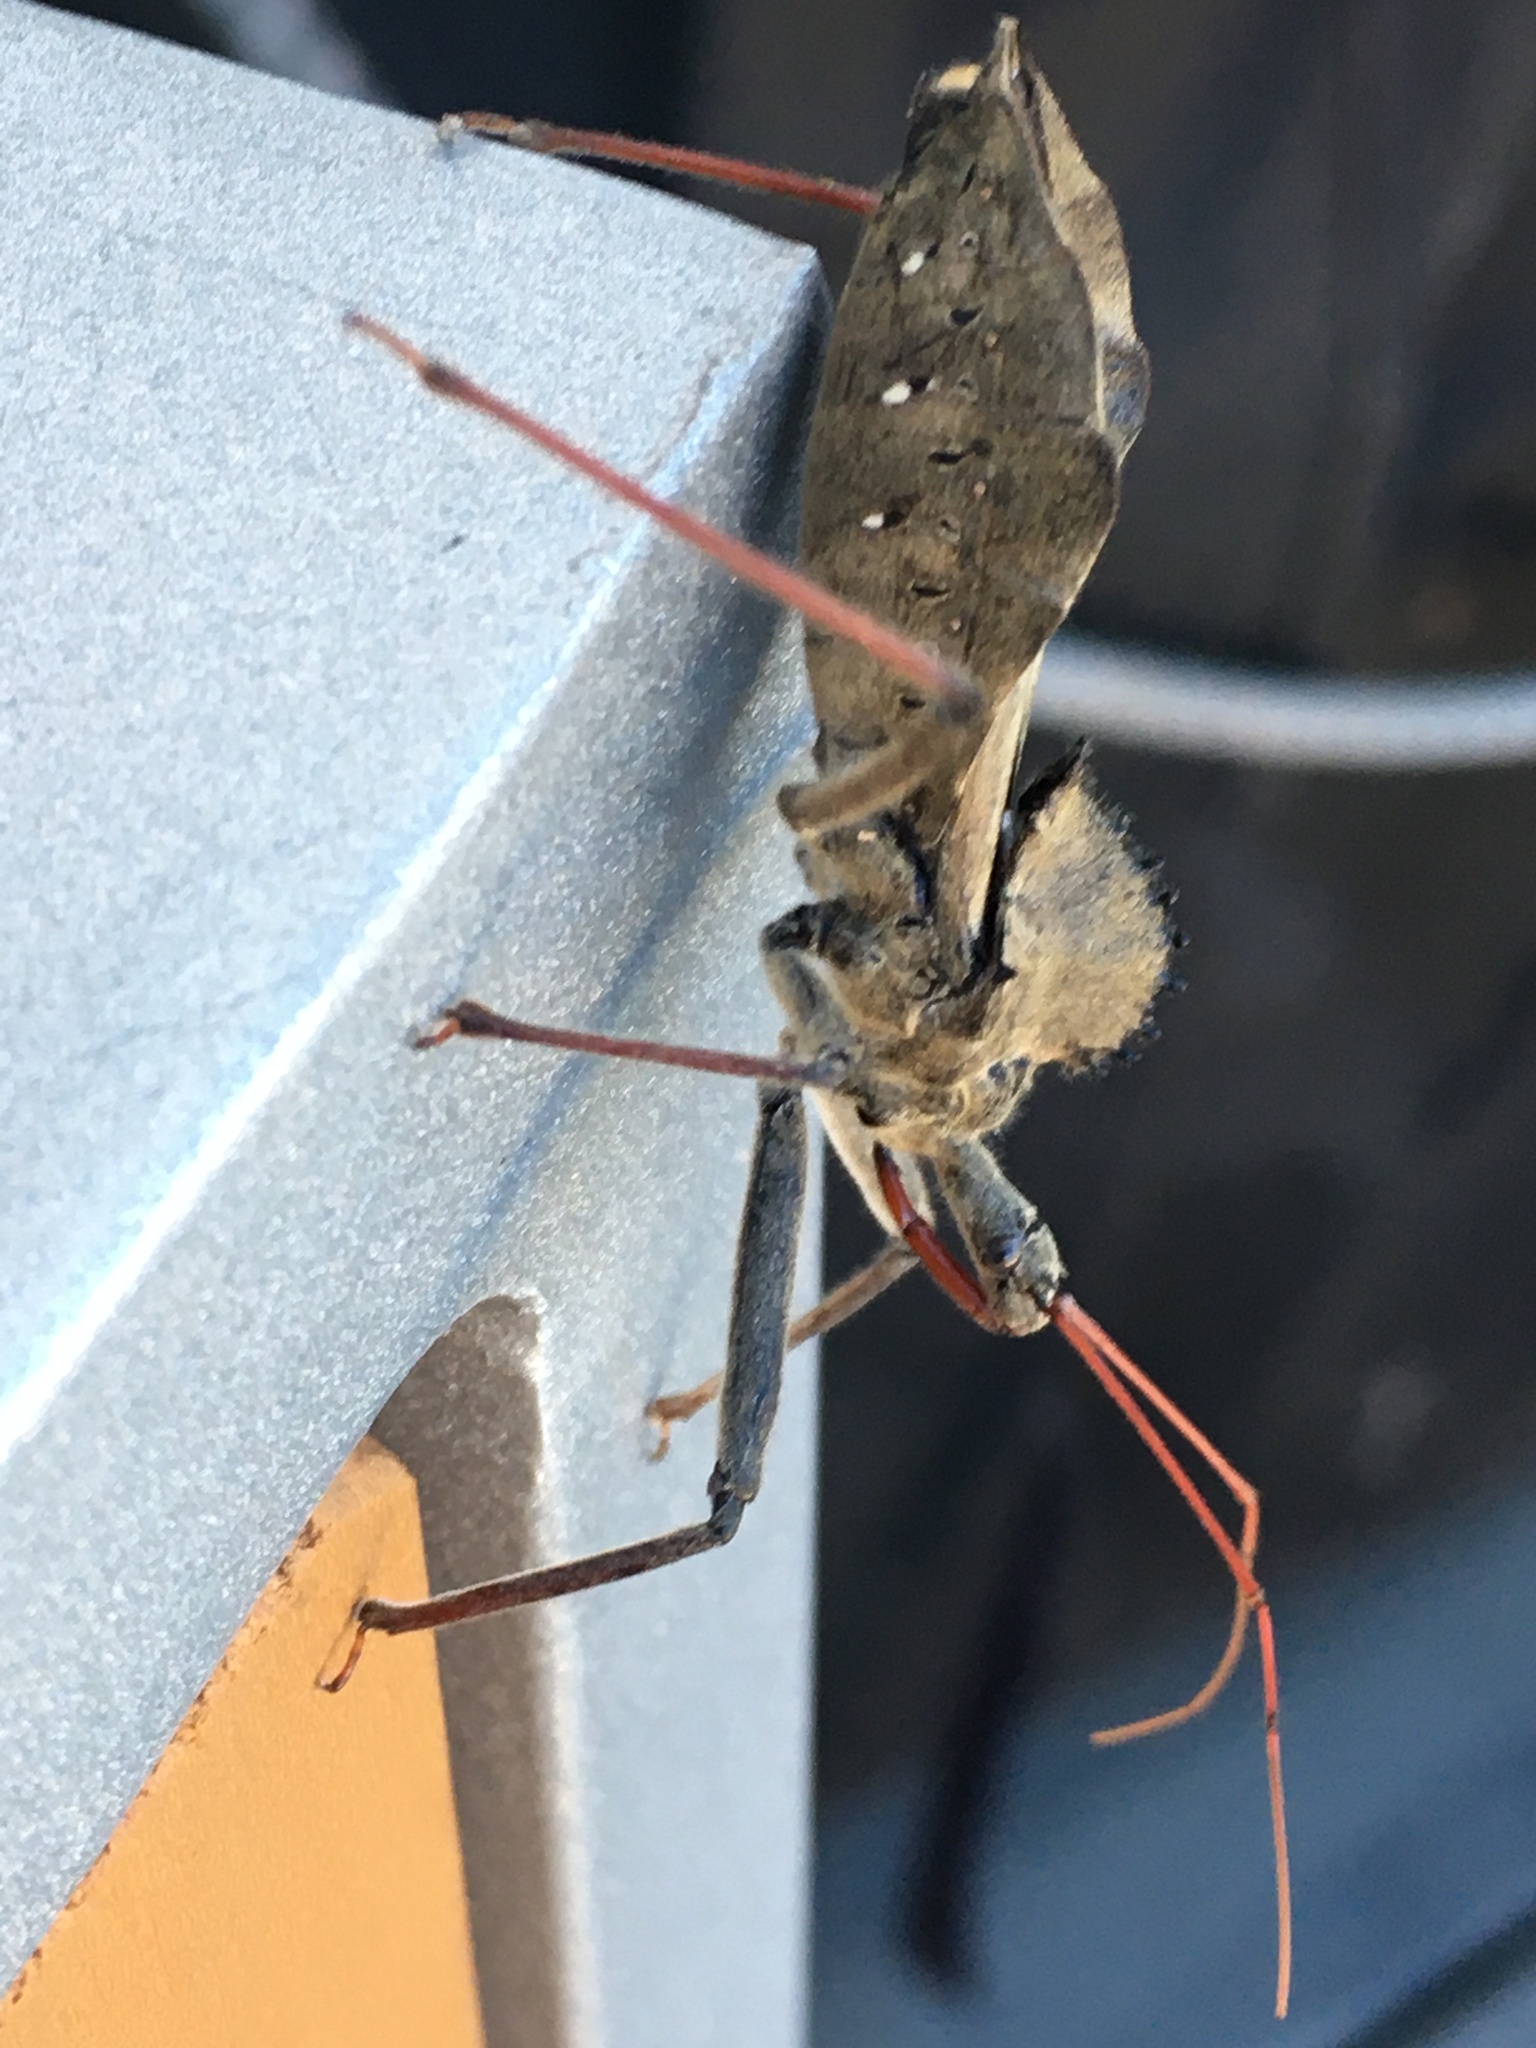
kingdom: Animalia
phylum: Arthropoda
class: Insecta
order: Hemiptera
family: Reduviidae
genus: Arilus
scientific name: Arilus cristatus
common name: North american wheel bug
